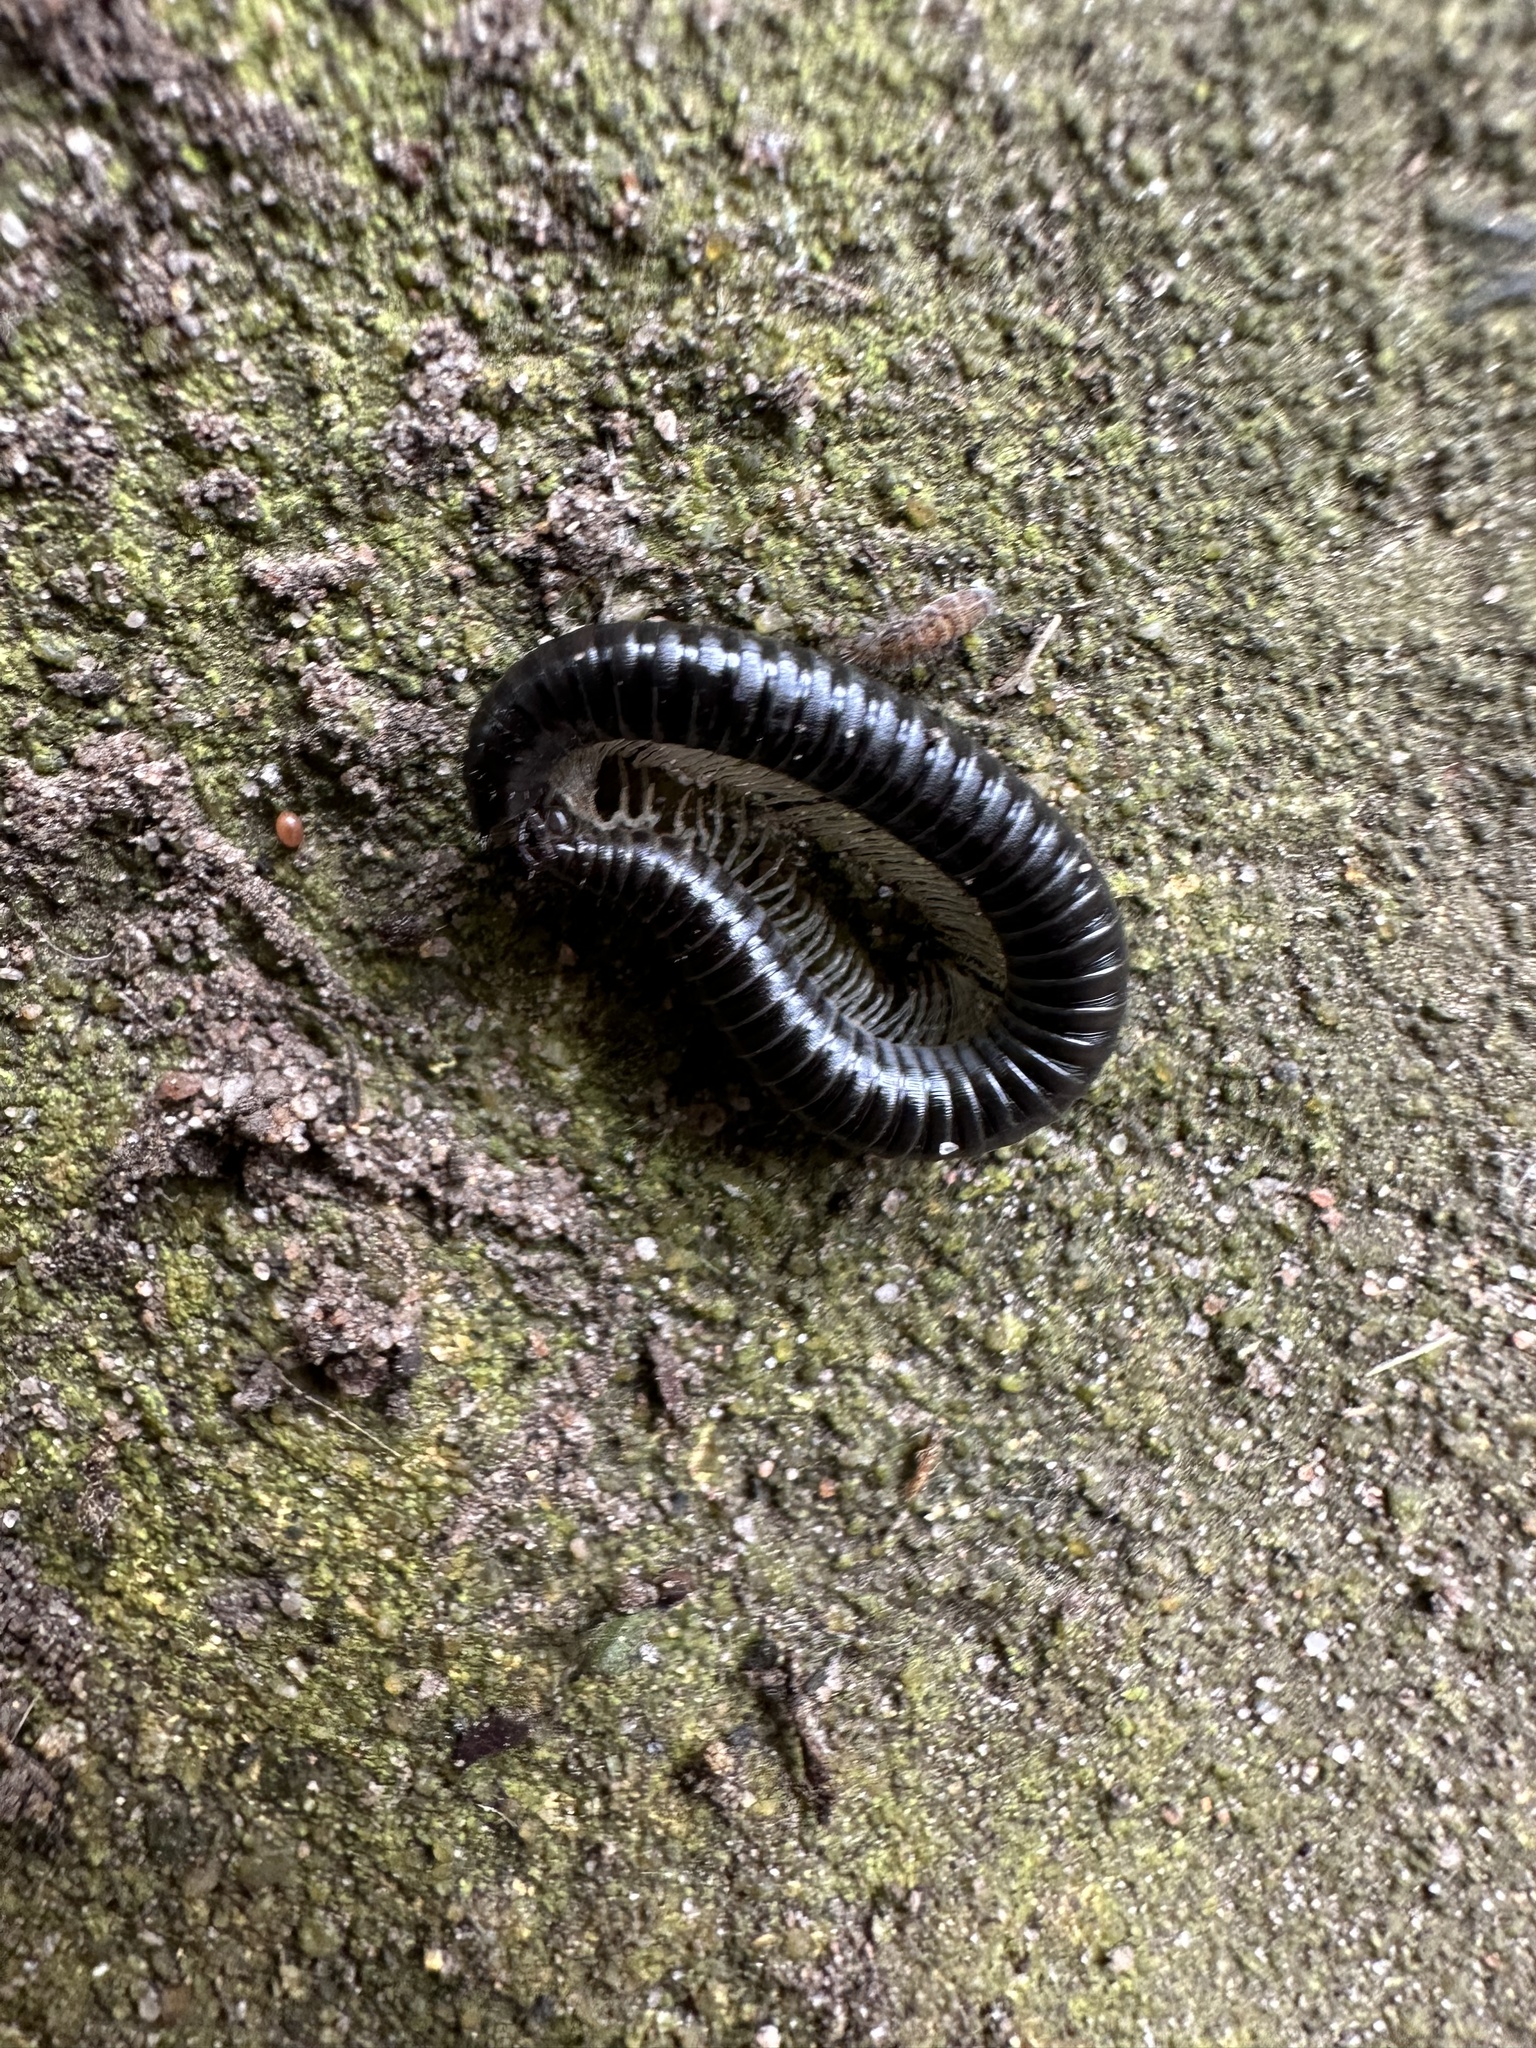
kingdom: Animalia
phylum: Arthropoda
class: Diplopoda
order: Julida
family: Julidae
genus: Tachypodoiulus
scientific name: Tachypodoiulus niger
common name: White-legged snake millipede
